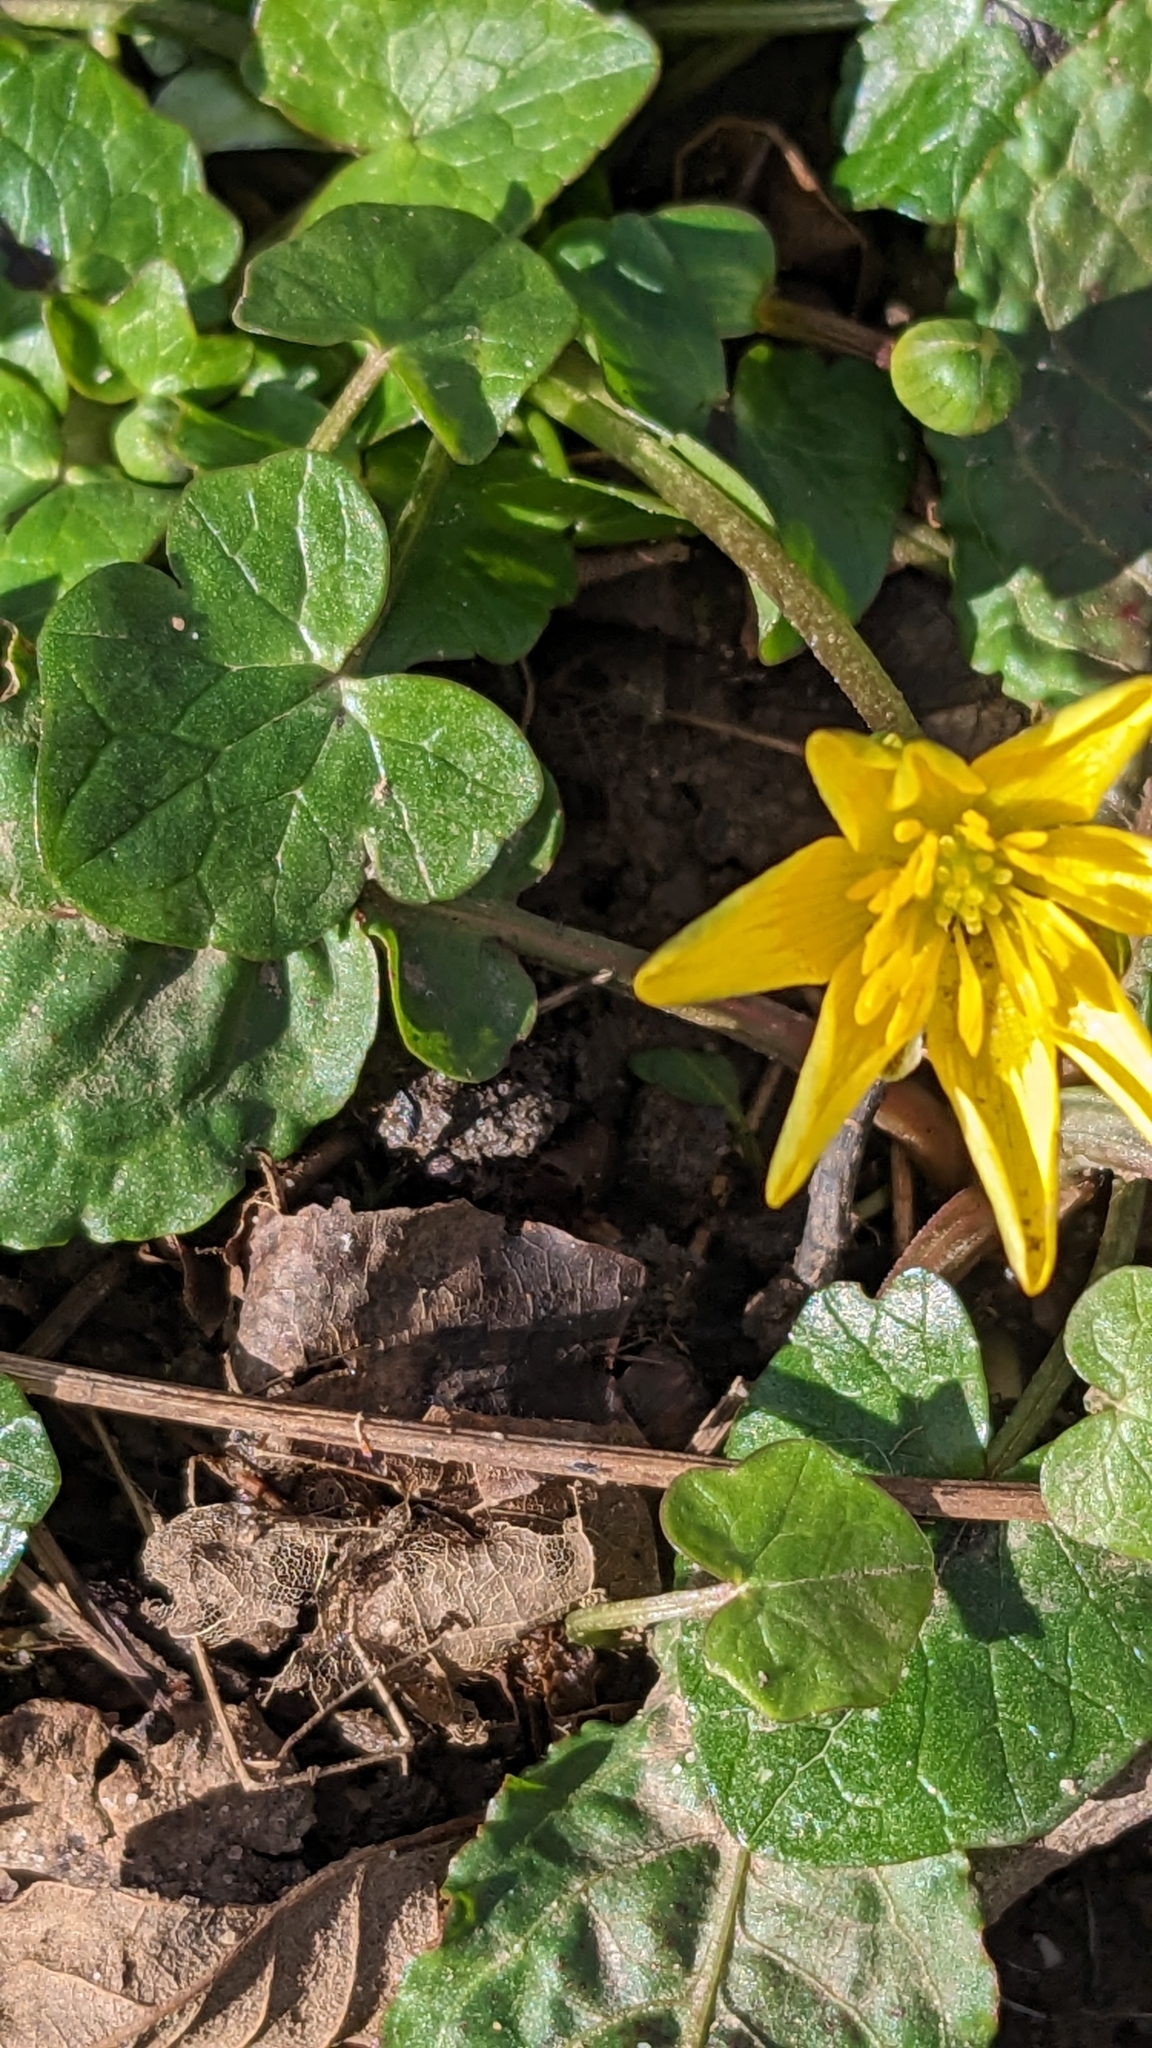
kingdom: Plantae
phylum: Tracheophyta
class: Magnoliopsida
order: Ranunculales
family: Ranunculaceae
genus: Ficaria
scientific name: Ficaria verna
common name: Lesser celandine
